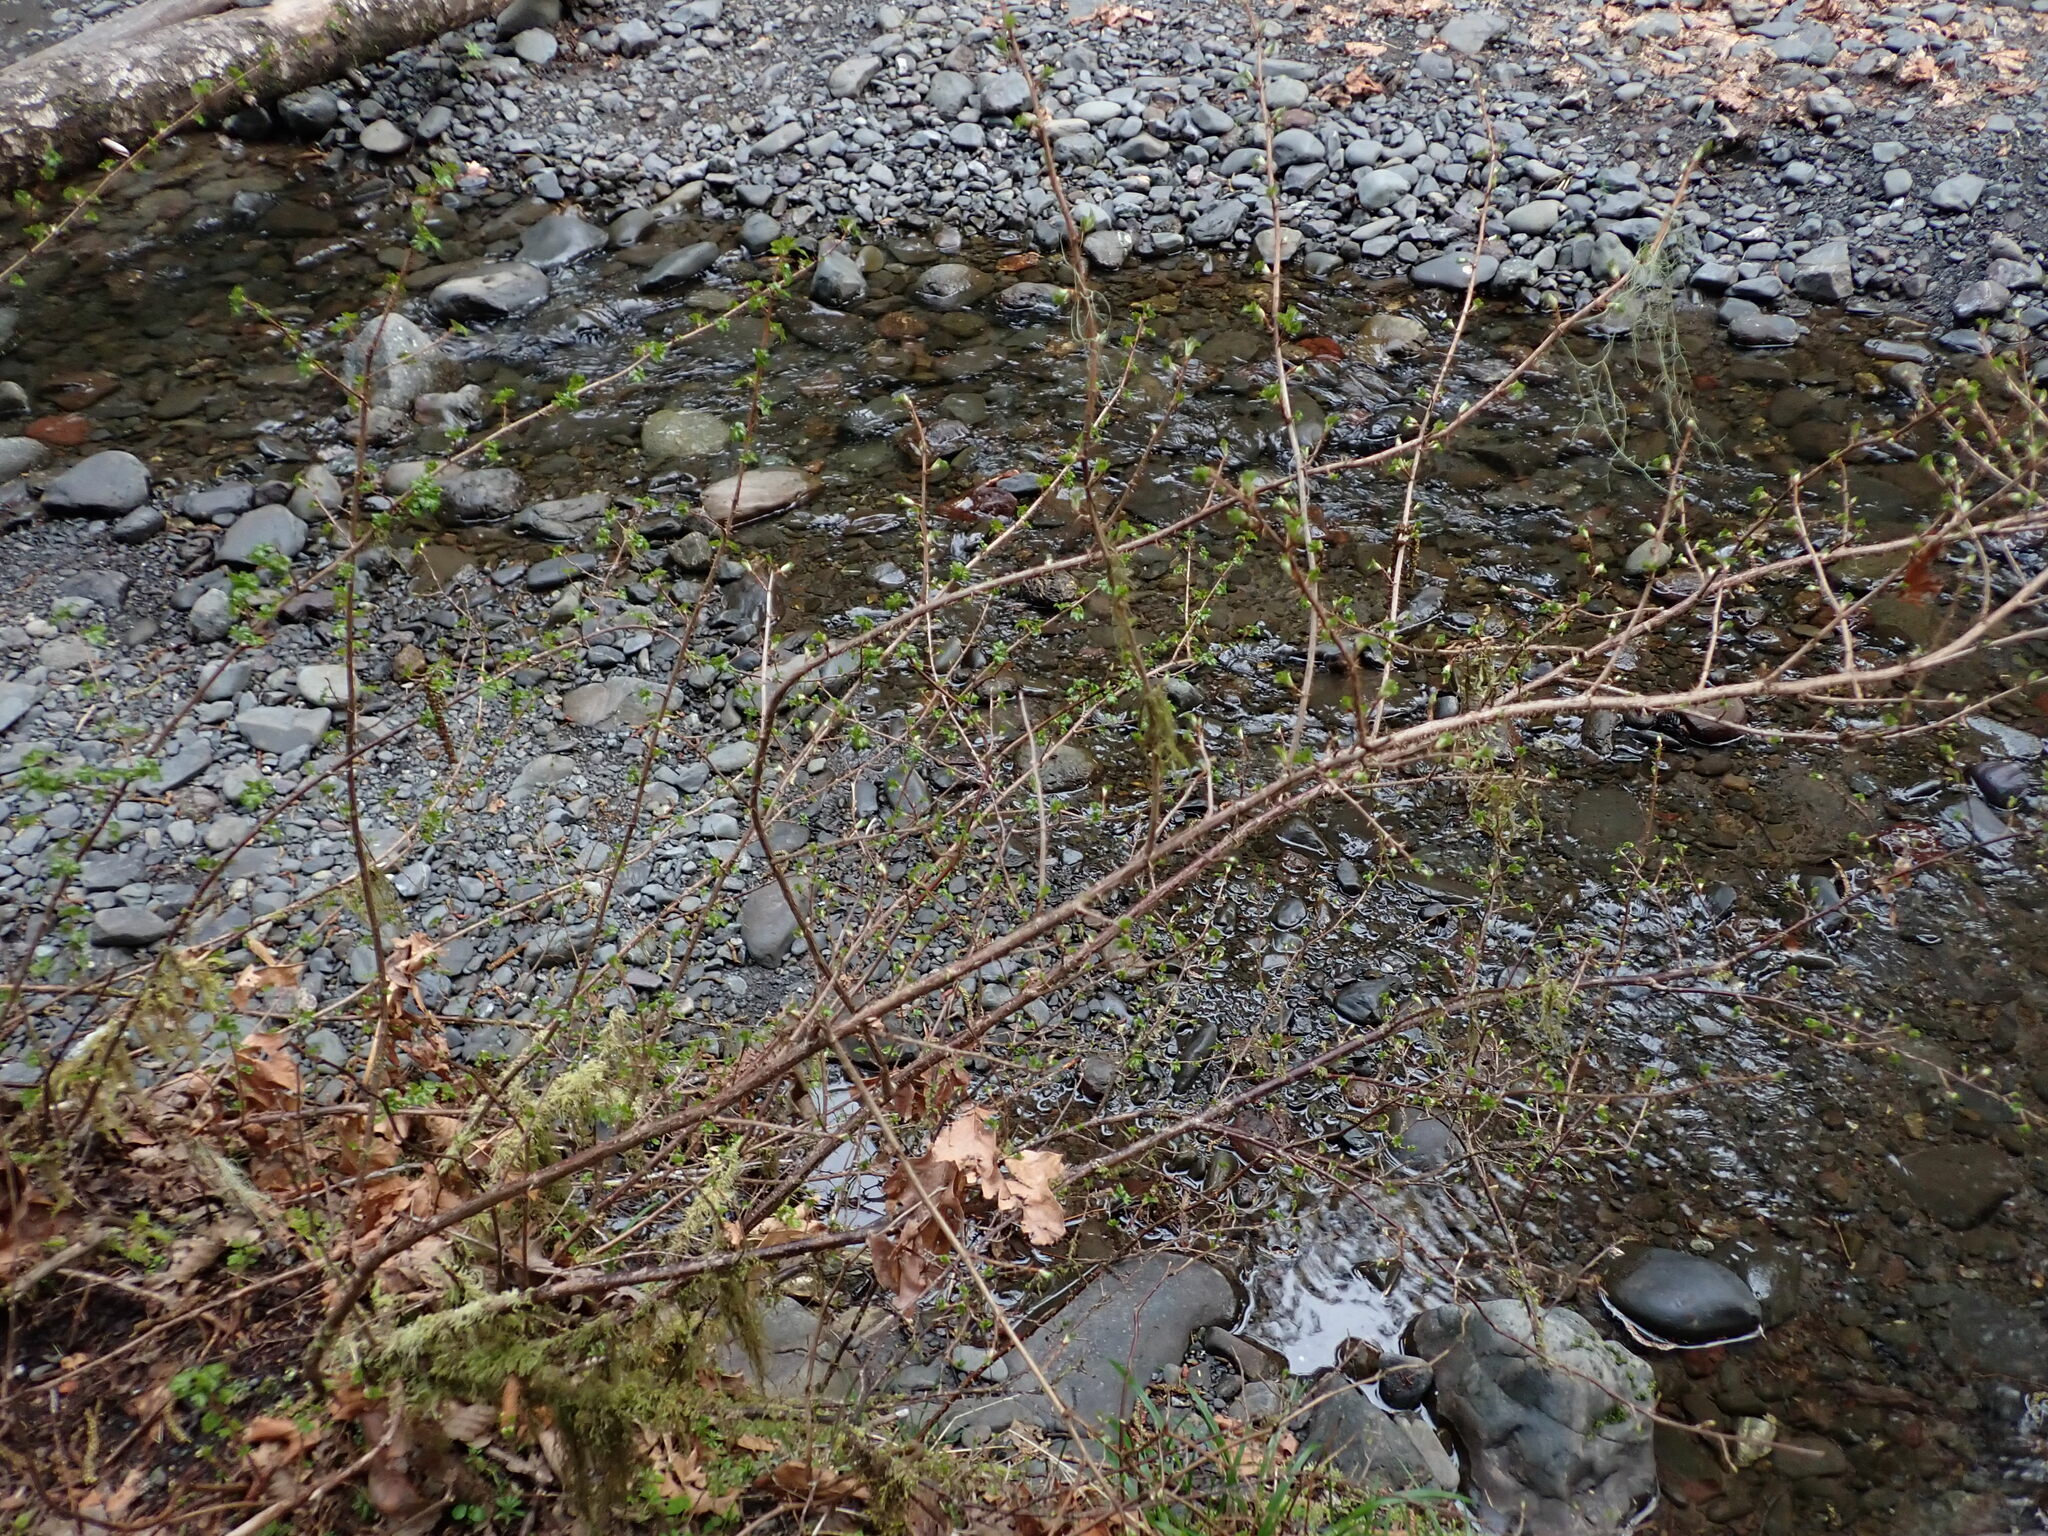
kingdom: Plantae
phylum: Tracheophyta
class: Magnoliopsida
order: Saxifragales
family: Grossulariaceae
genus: Ribes
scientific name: Ribes lacustre
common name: Black gooseberry
